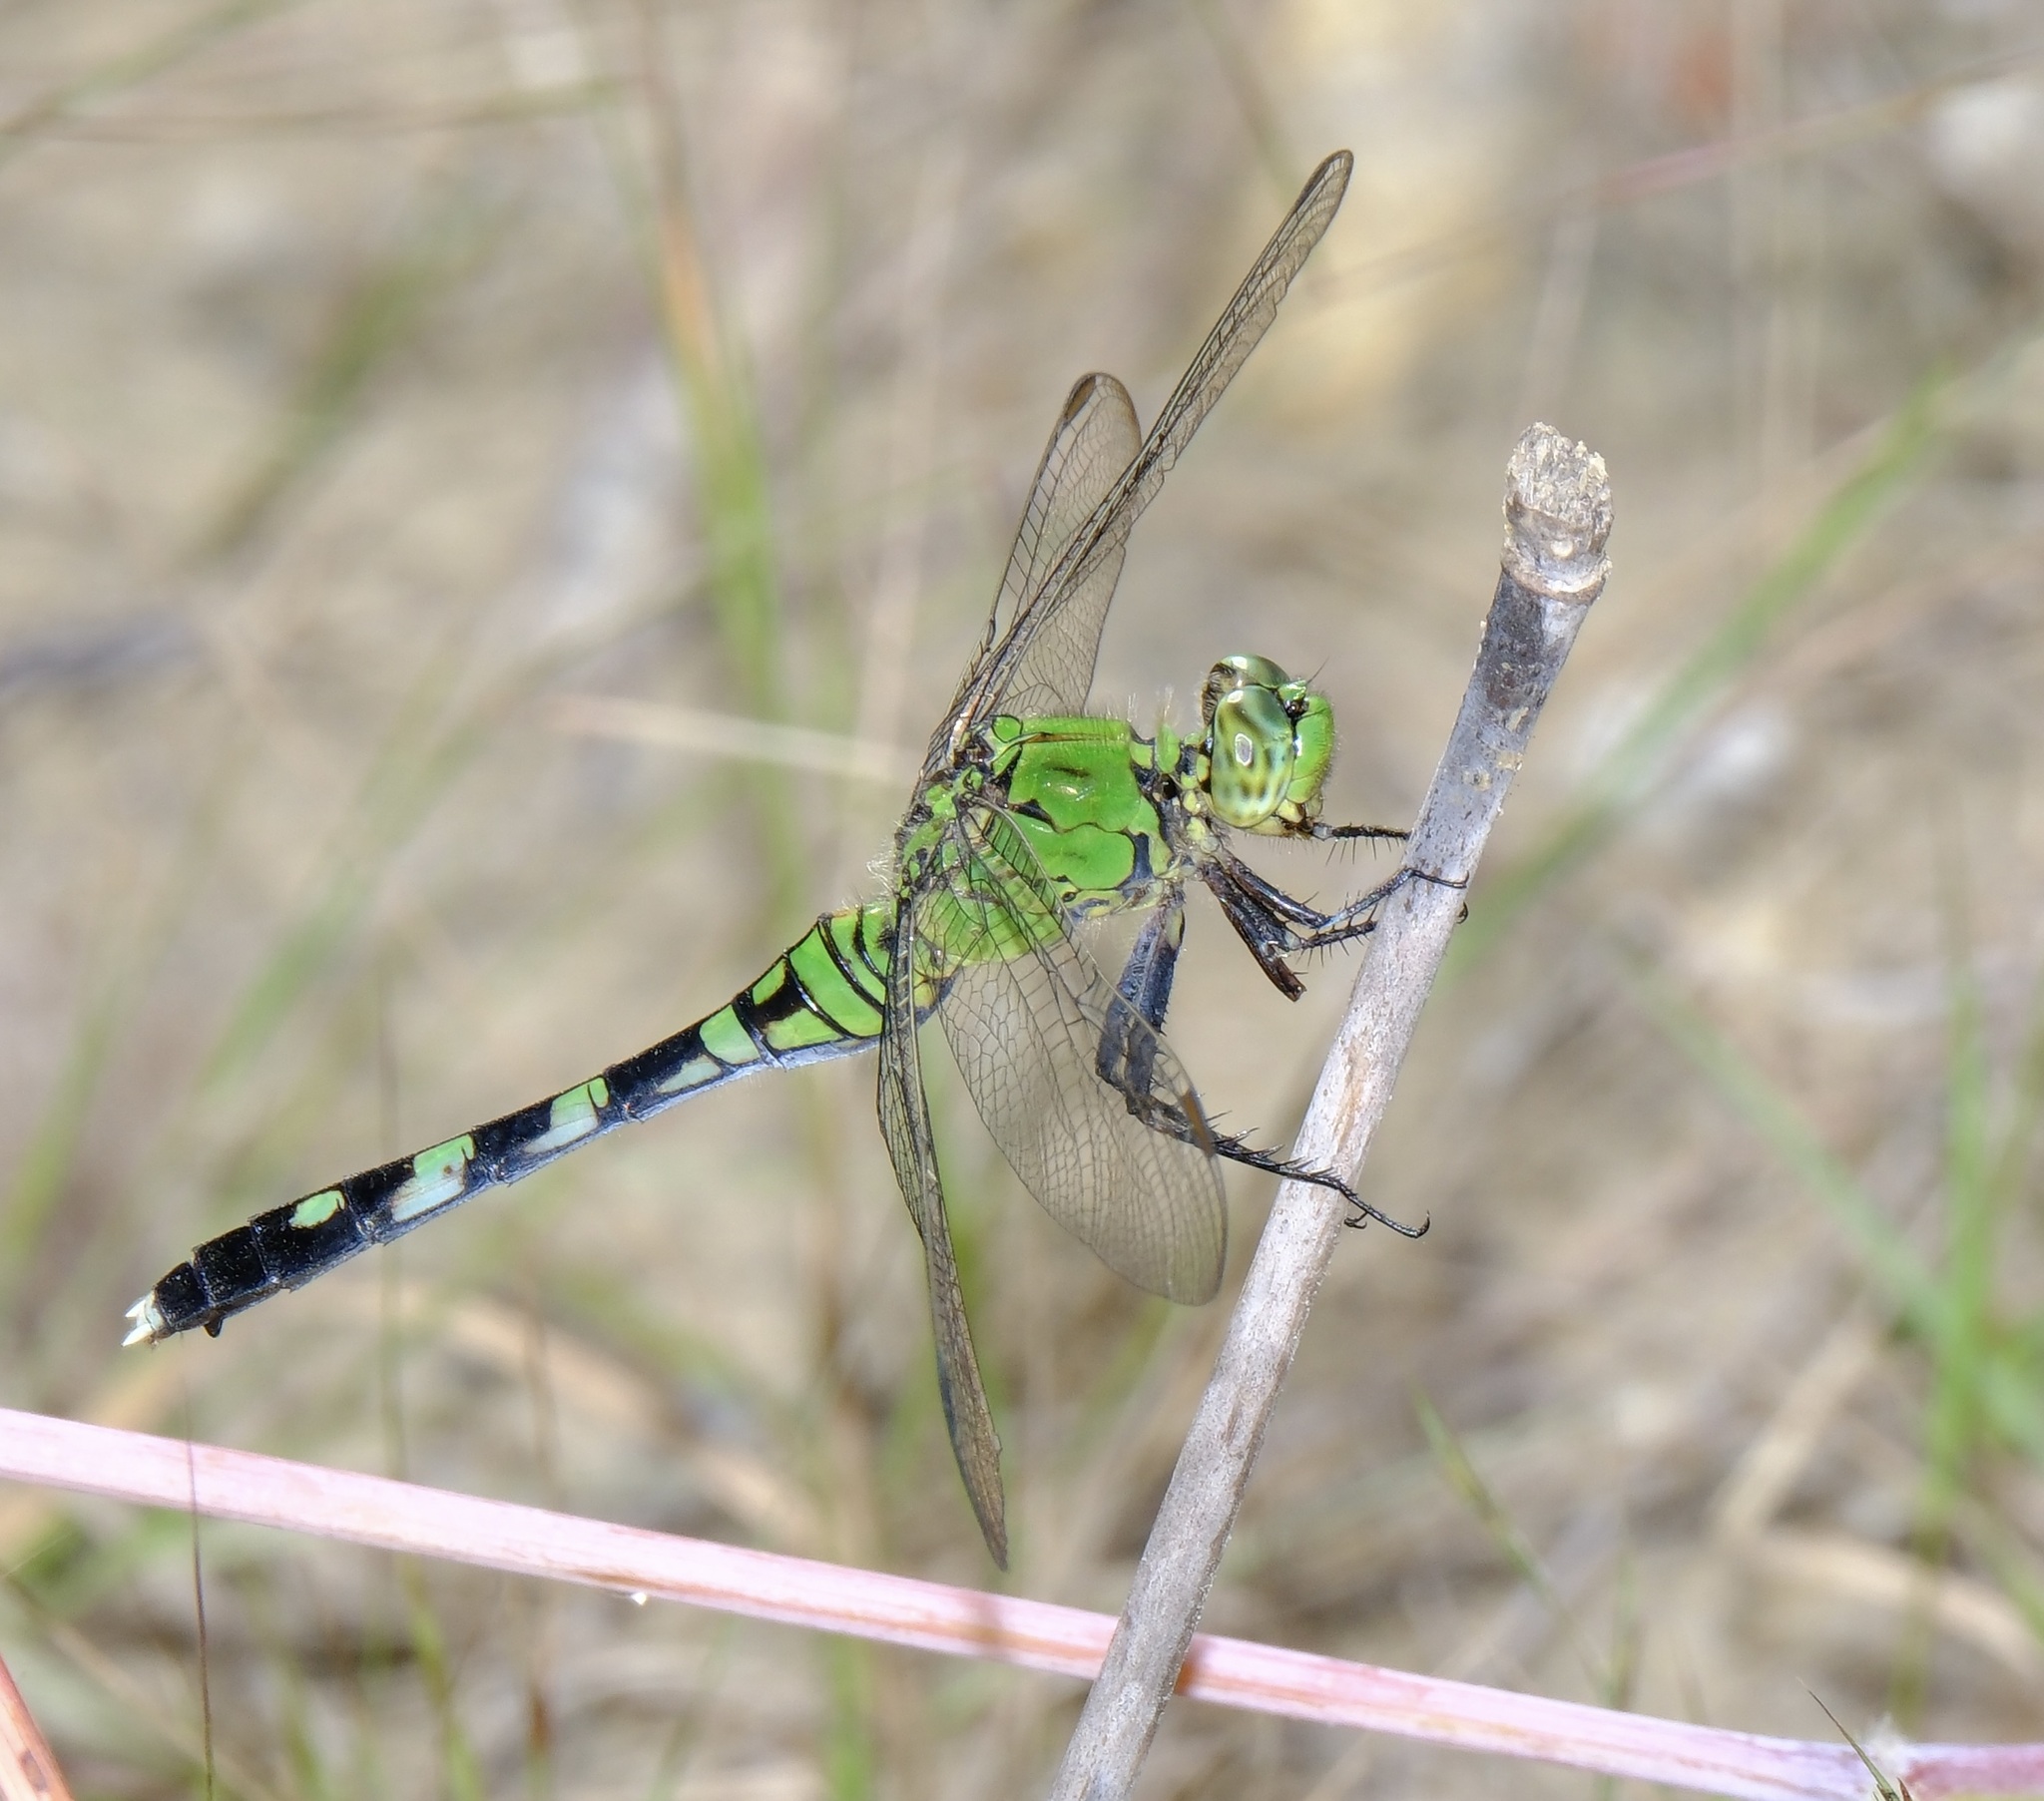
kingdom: Animalia
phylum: Arthropoda
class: Insecta
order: Odonata
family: Libellulidae
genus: Erythemis
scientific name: Erythemis simplicicollis
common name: Eastern pondhawk
